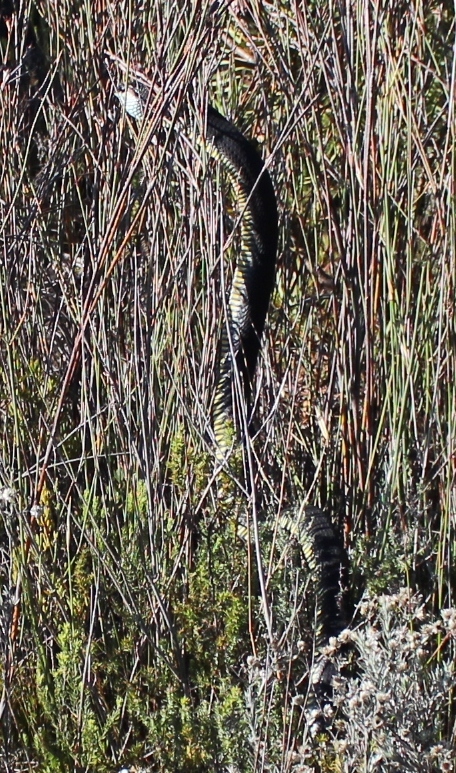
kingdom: Animalia
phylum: Chordata
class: Squamata
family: Colubridae
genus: Dispholidus
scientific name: Dispholidus typus
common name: Boomslang
